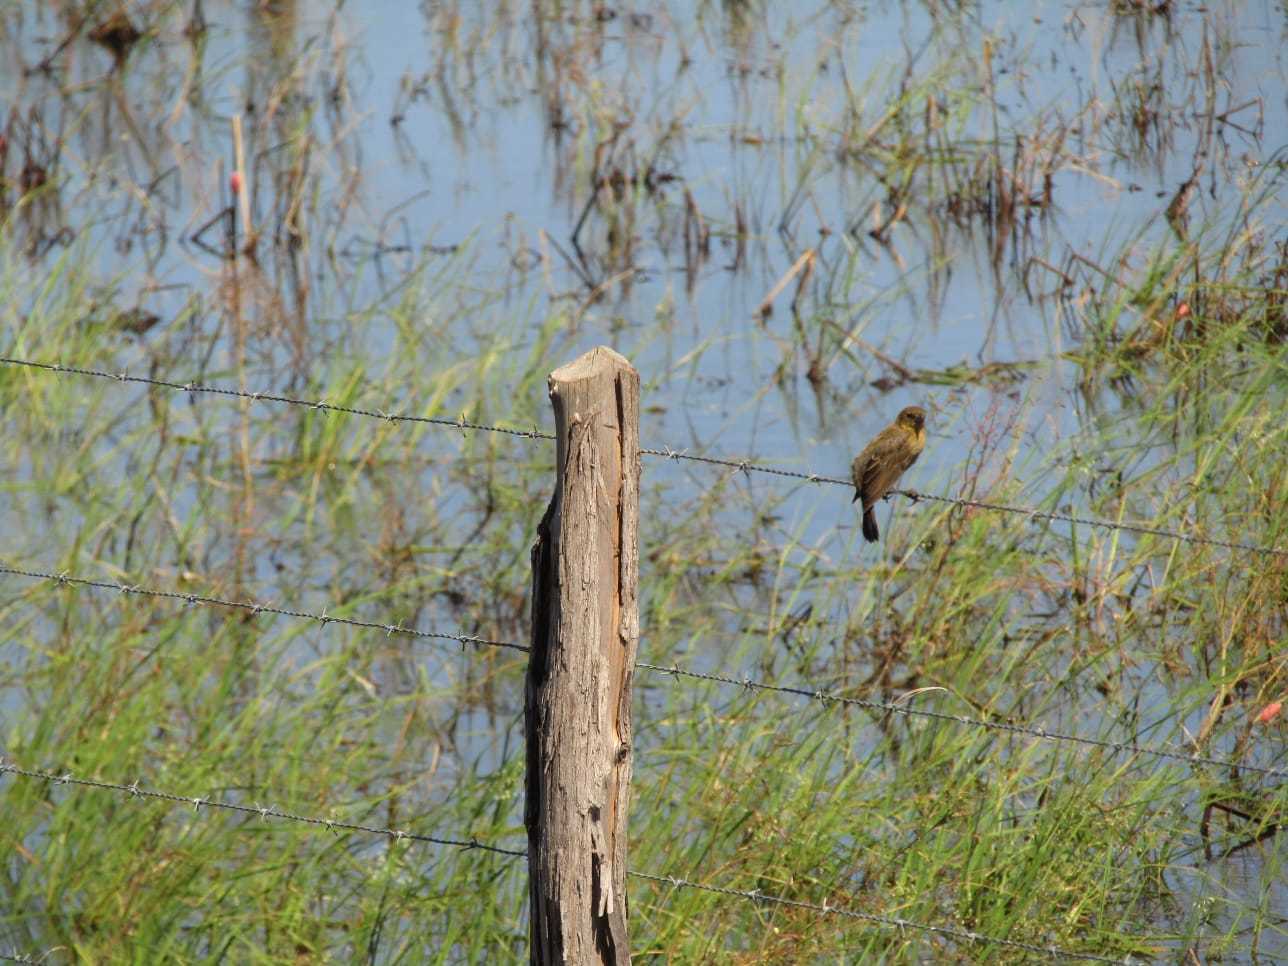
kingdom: Animalia
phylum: Chordata
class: Aves
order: Passeriformes
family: Icteridae
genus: Chrysomus
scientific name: Chrysomus ruficapillus
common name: Chestnut-capped blackbird
